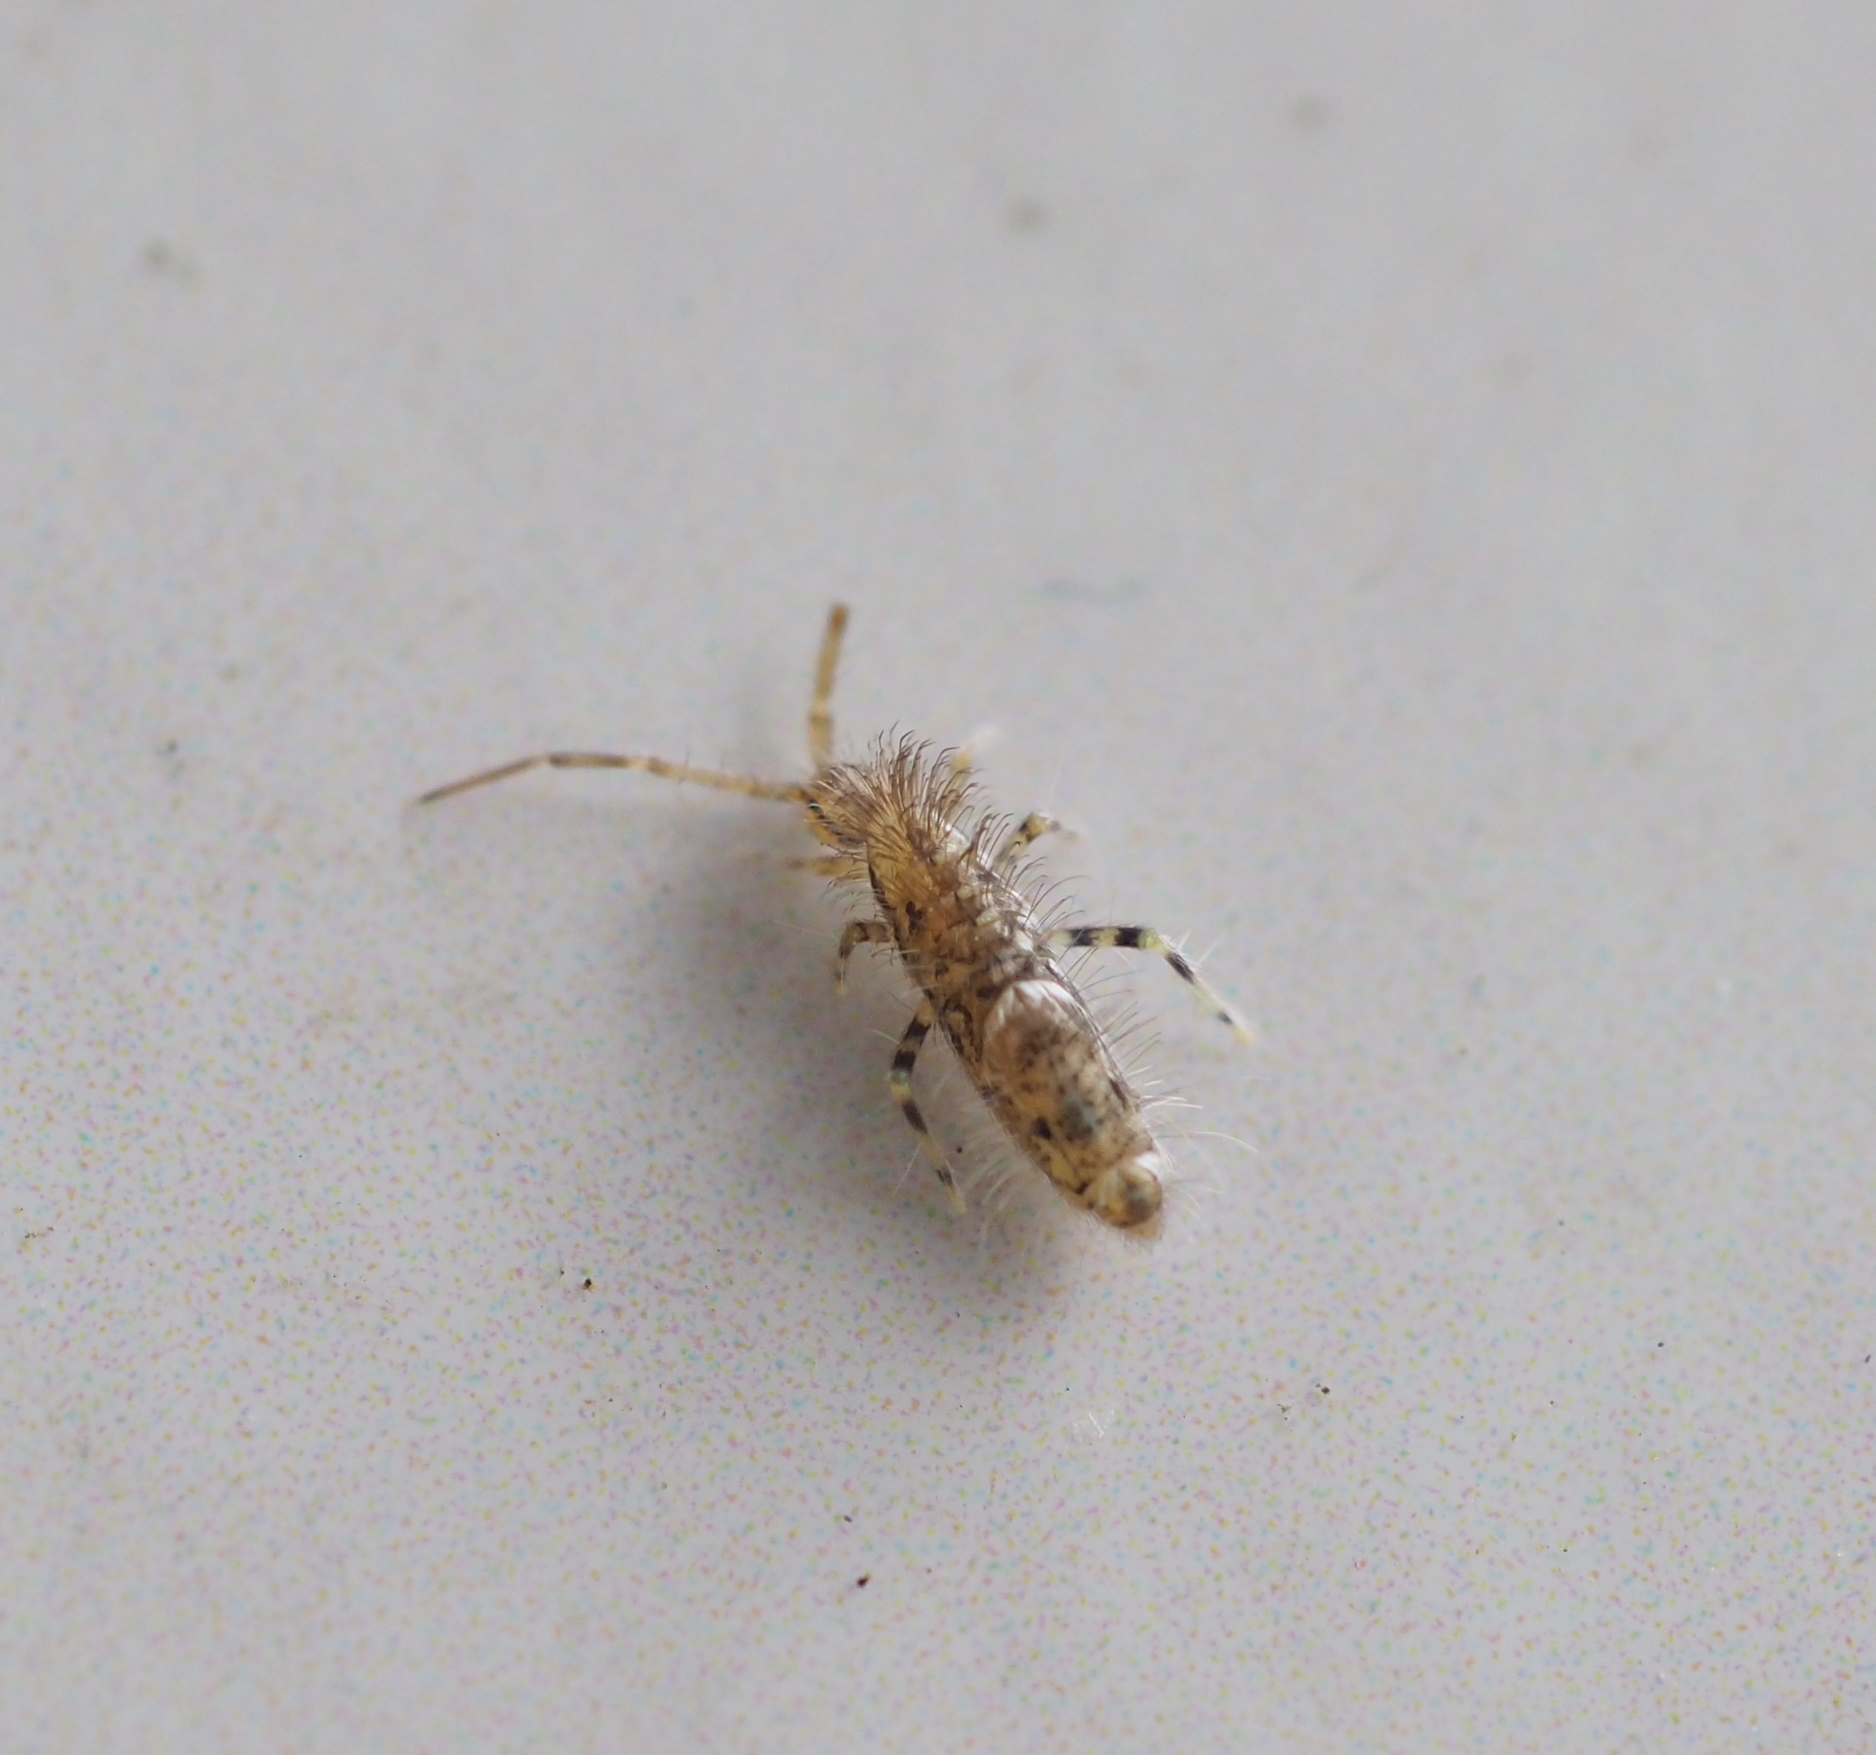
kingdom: Animalia
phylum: Arthropoda
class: Collembola
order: Entomobryomorpha
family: Entomobryidae
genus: Entomobrya
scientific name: Entomobrya dorsalis
